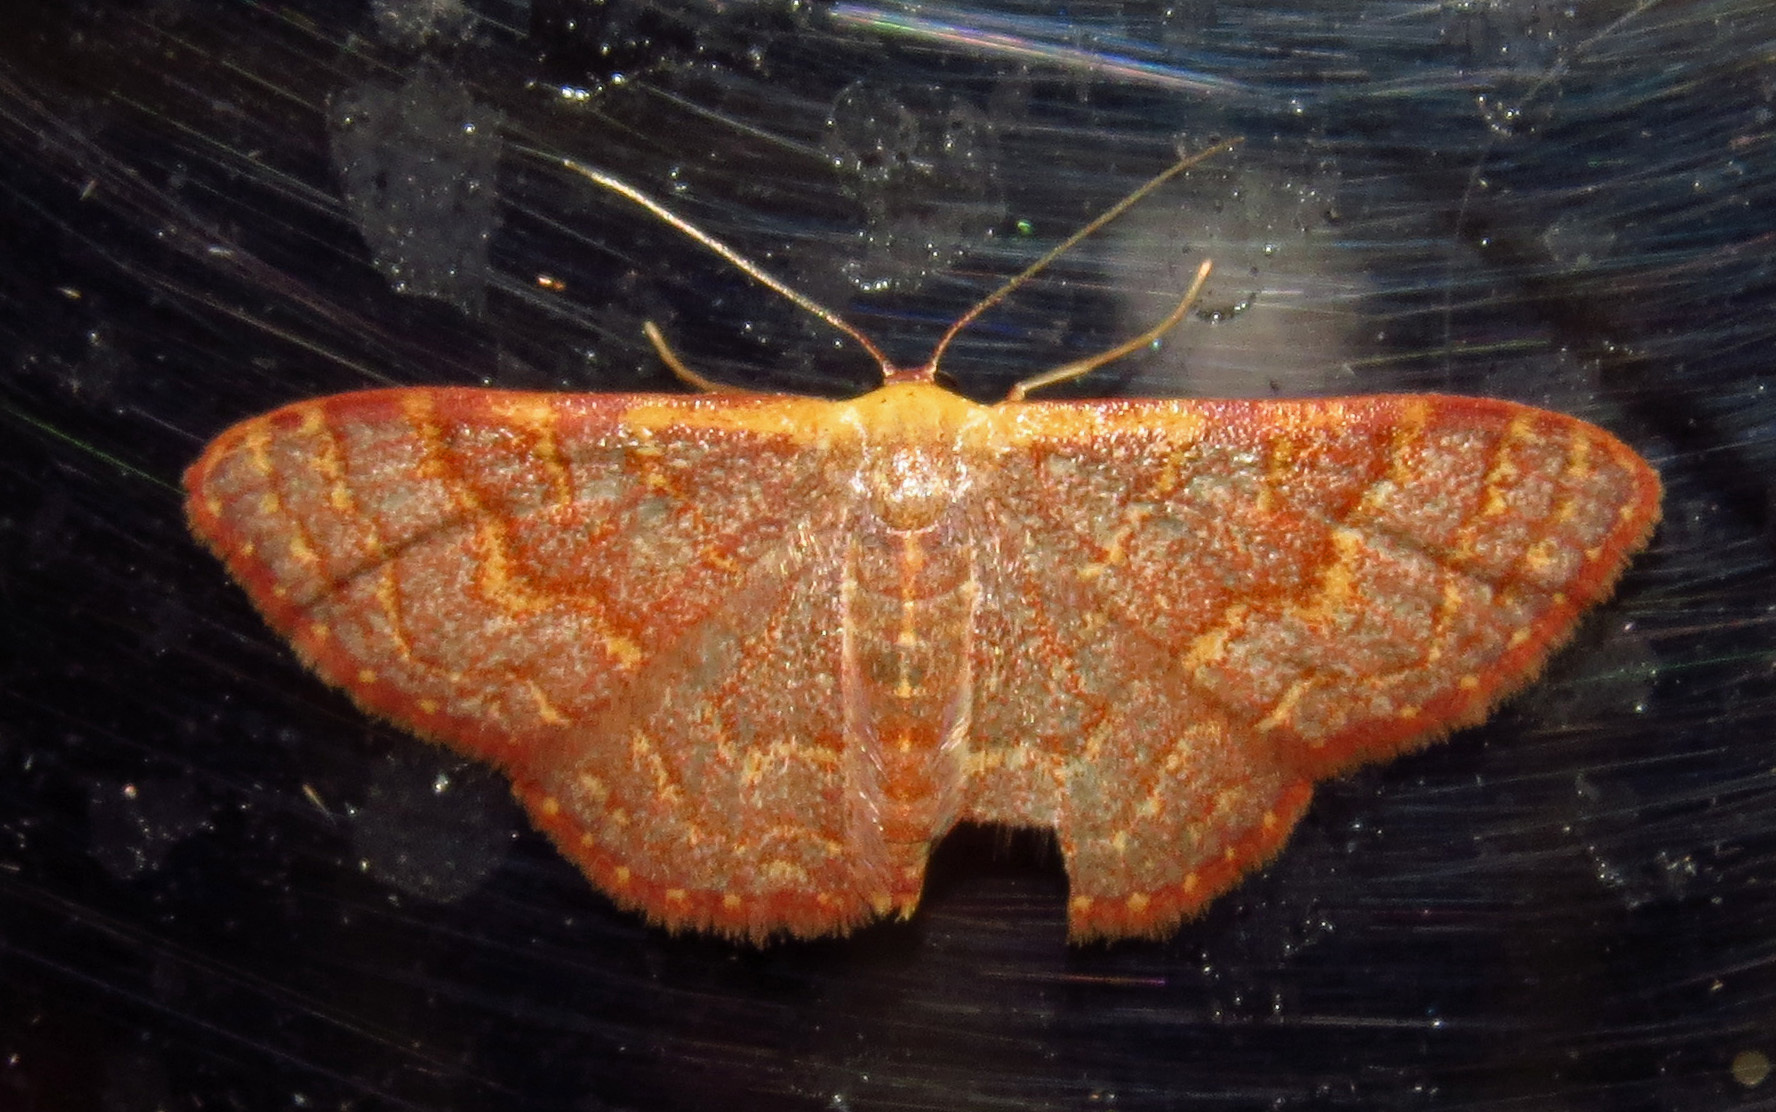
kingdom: Animalia
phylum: Arthropoda
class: Insecta
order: Lepidoptera
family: Geometridae
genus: Leptostales
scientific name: Leptostales pannaria
